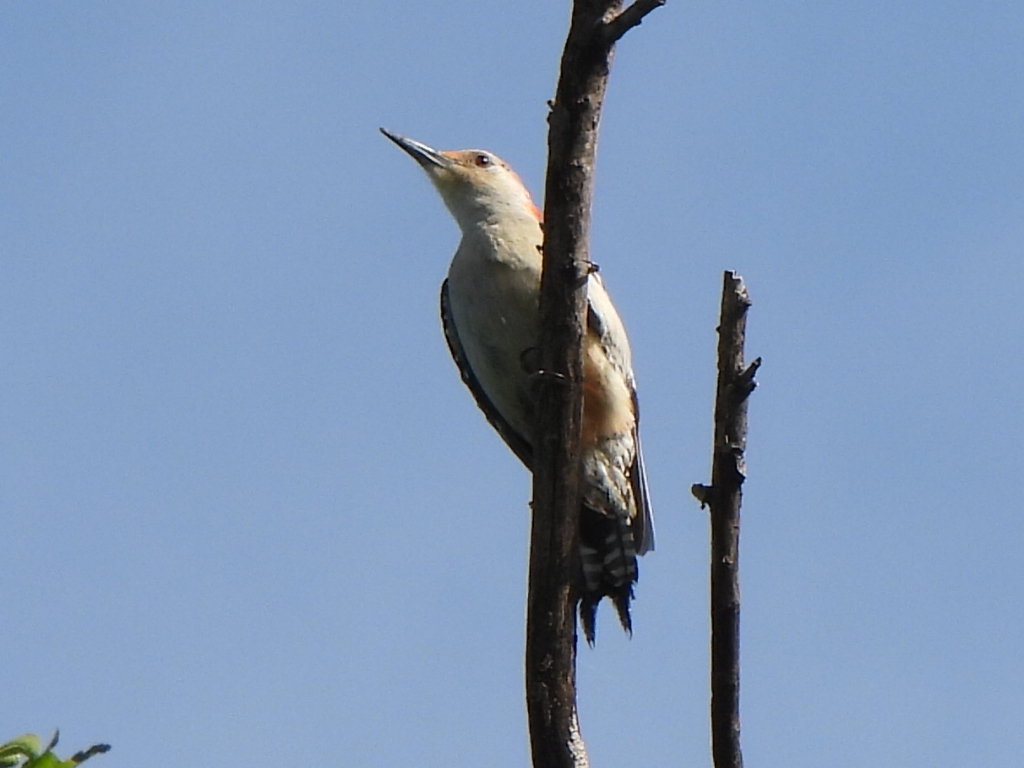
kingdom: Animalia
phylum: Chordata
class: Aves
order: Piciformes
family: Picidae
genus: Melanerpes
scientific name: Melanerpes carolinus
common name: Red-bellied woodpecker
